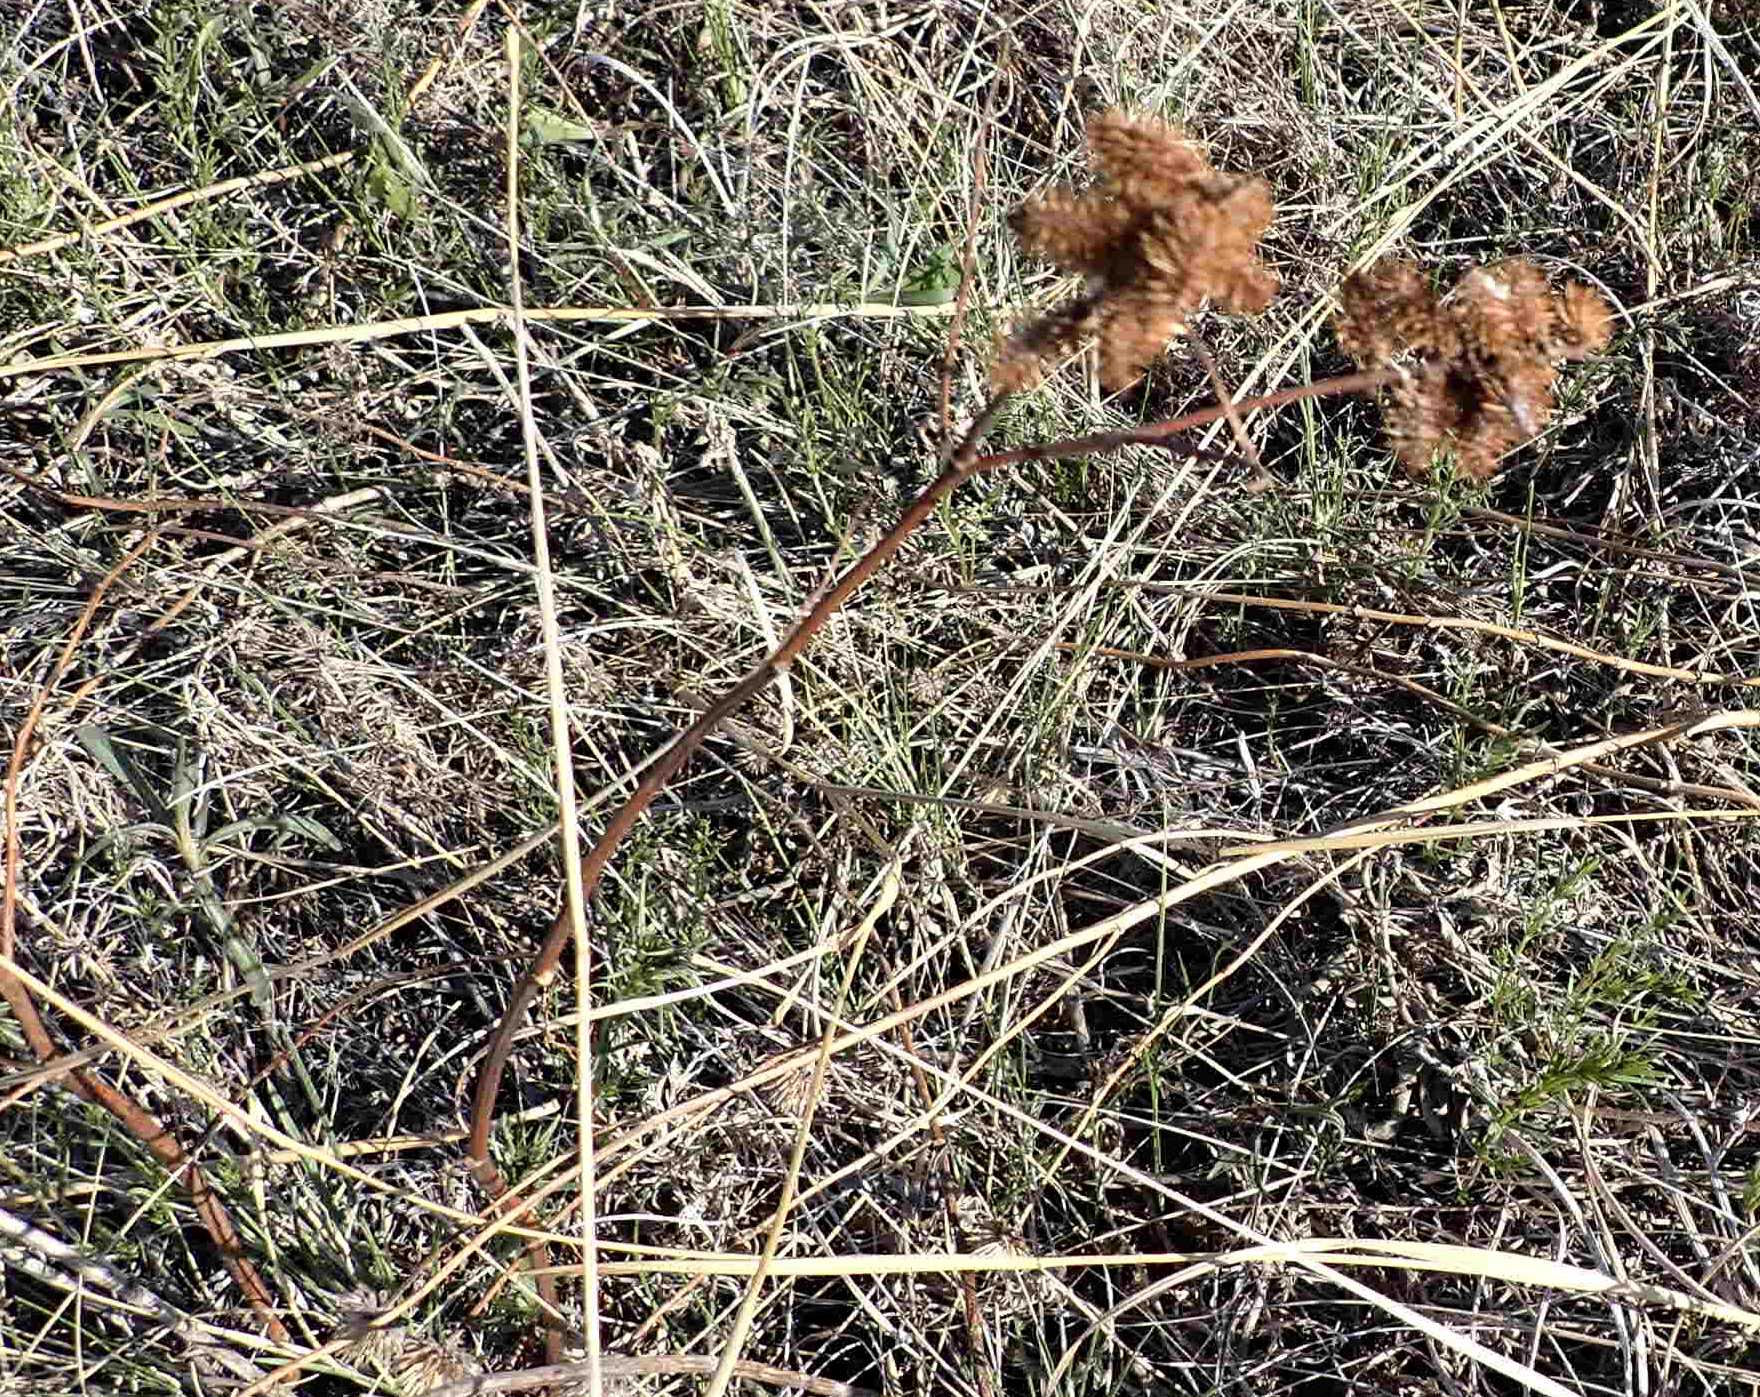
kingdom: Plantae
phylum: Tracheophyta
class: Magnoliopsida
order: Fabales
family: Fabaceae
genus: Glycyrrhiza
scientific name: Glycyrrhiza lepidota
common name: American liquorice
